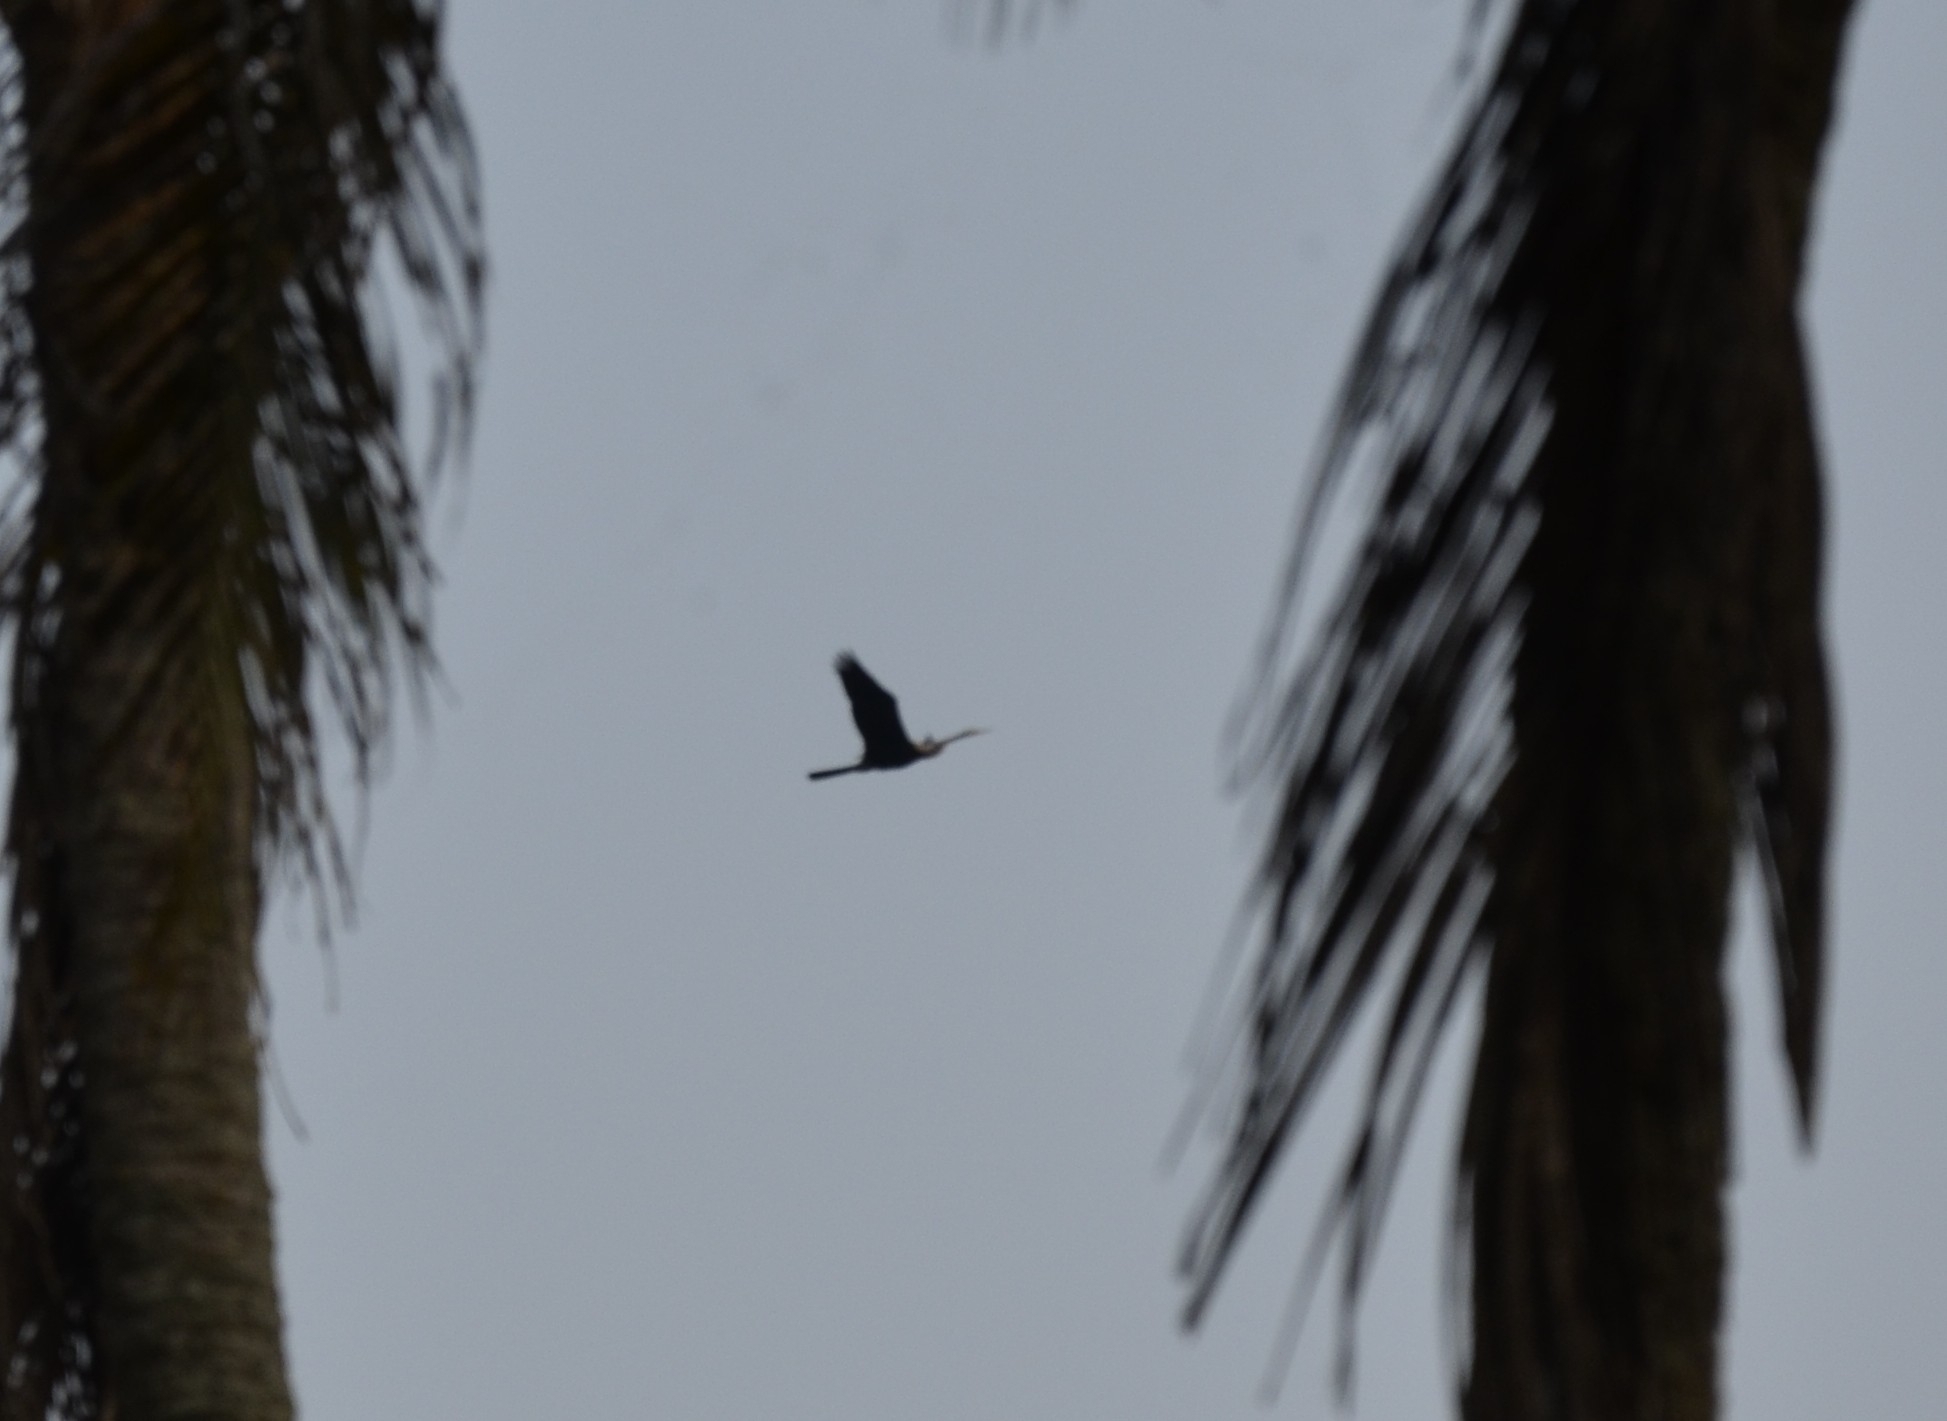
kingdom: Animalia
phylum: Chordata
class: Aves
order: Suliformes
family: Anhingidae
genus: Anhinga
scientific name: Anhinga melanogaster
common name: Oriental darter
